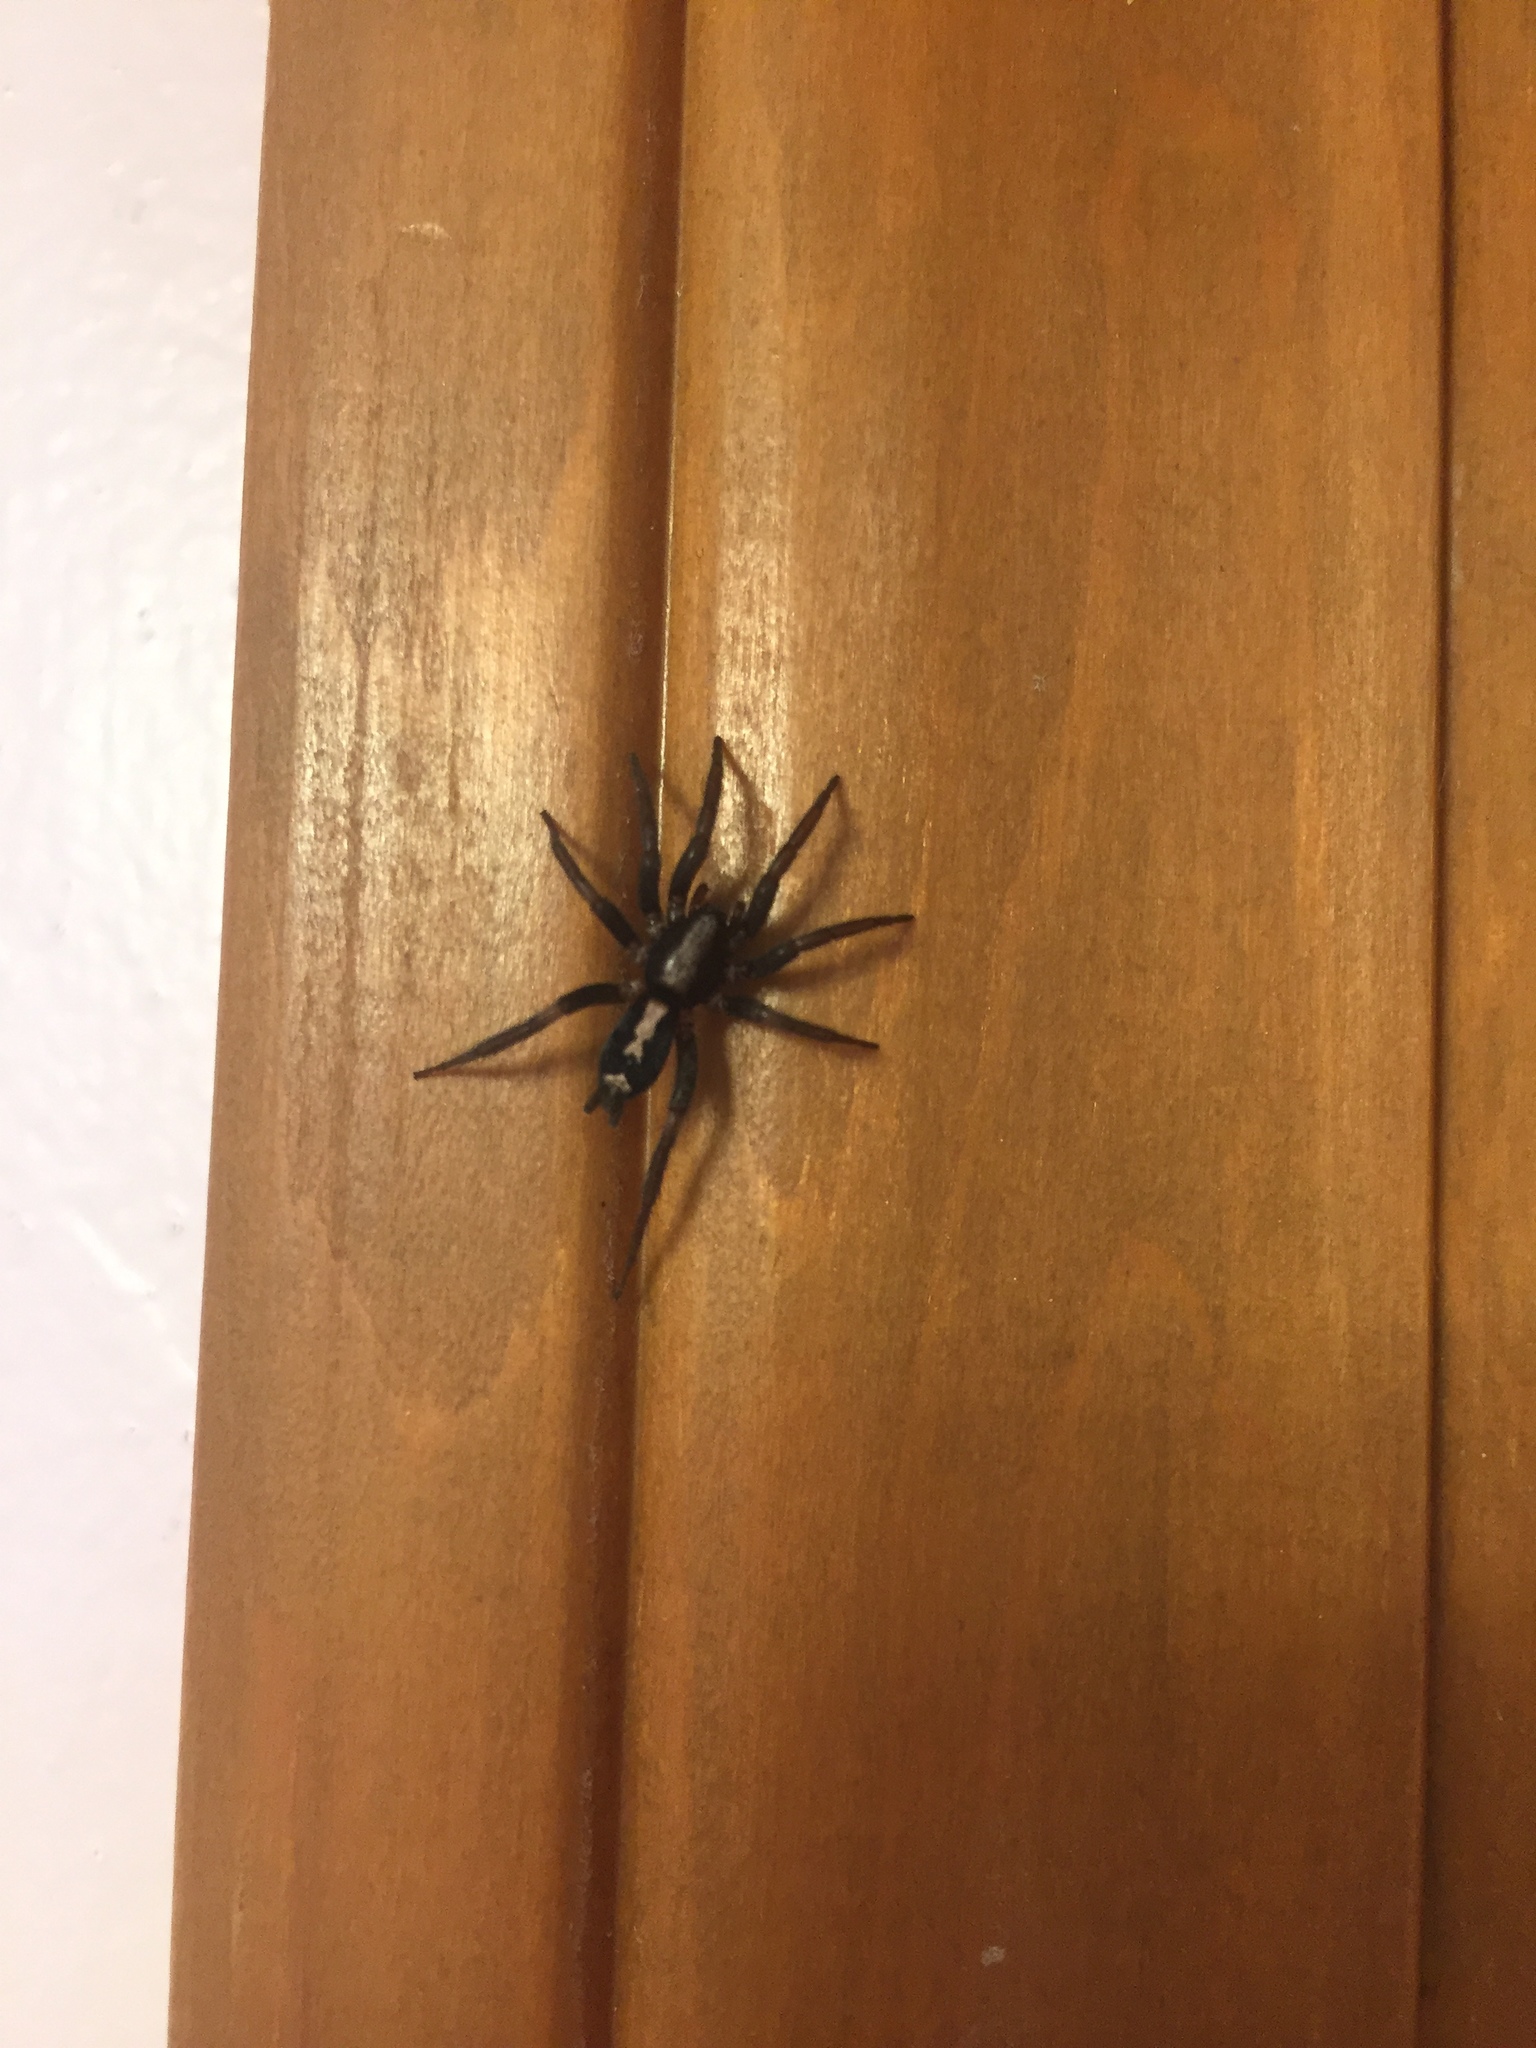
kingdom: Animalia
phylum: Arthropoda
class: Arachnida
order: Araneae
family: Gnaphosidae
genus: Herpyllus
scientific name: Herpyllus ecclesiasticus
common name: Eastern parson spider
